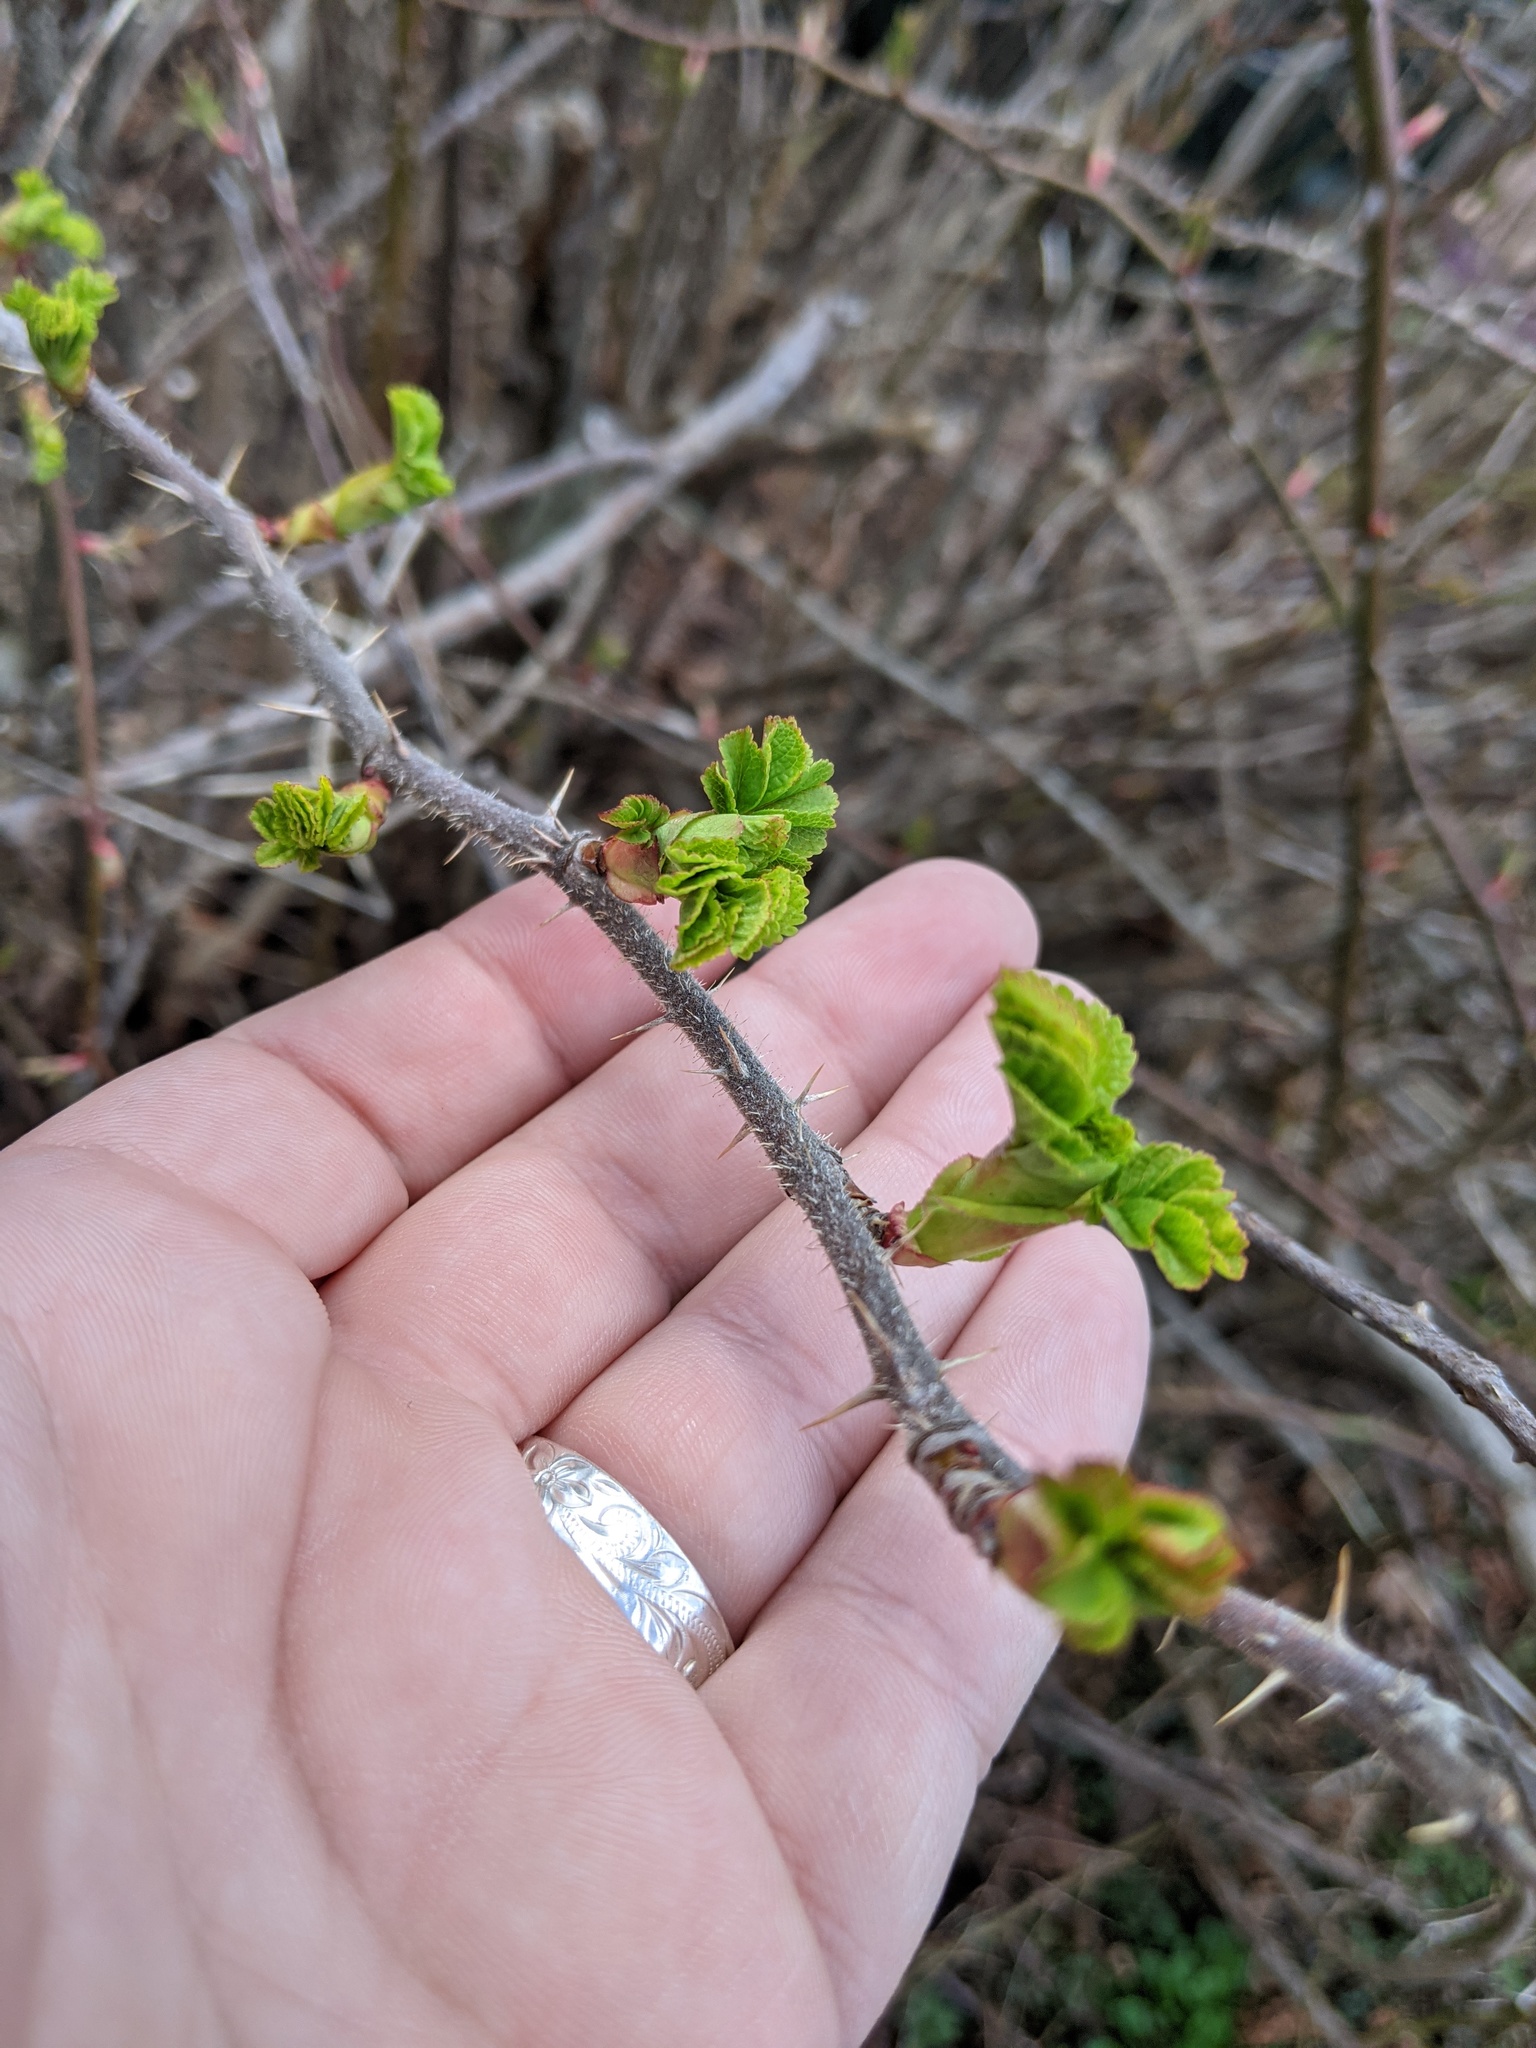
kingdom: Plantae
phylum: Tracheophyta
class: Magnoliopsida
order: Rosales
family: Rosaceae
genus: Rosa
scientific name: Rosa rugosa
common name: Japanese rose
